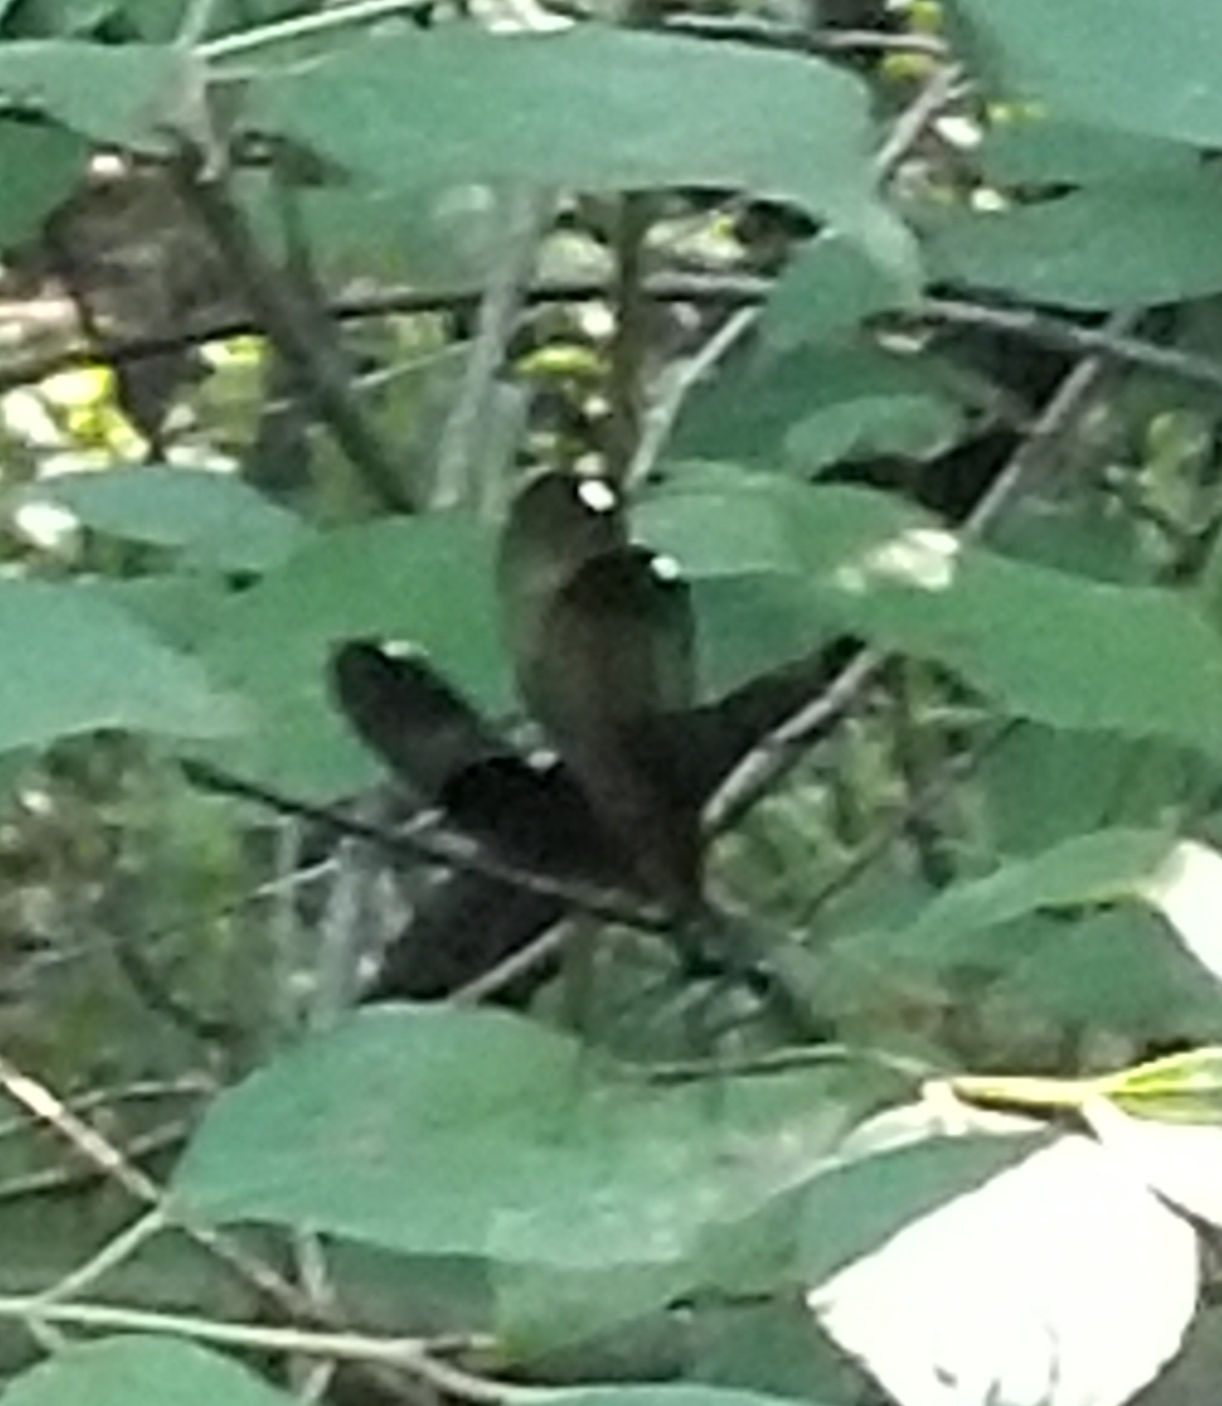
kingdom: Animalia
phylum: Arthropoda
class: Insecta
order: Odonata
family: Calopterygidae
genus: Calopteryx
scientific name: Calopteryx maculata
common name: Ebony jewelwing
